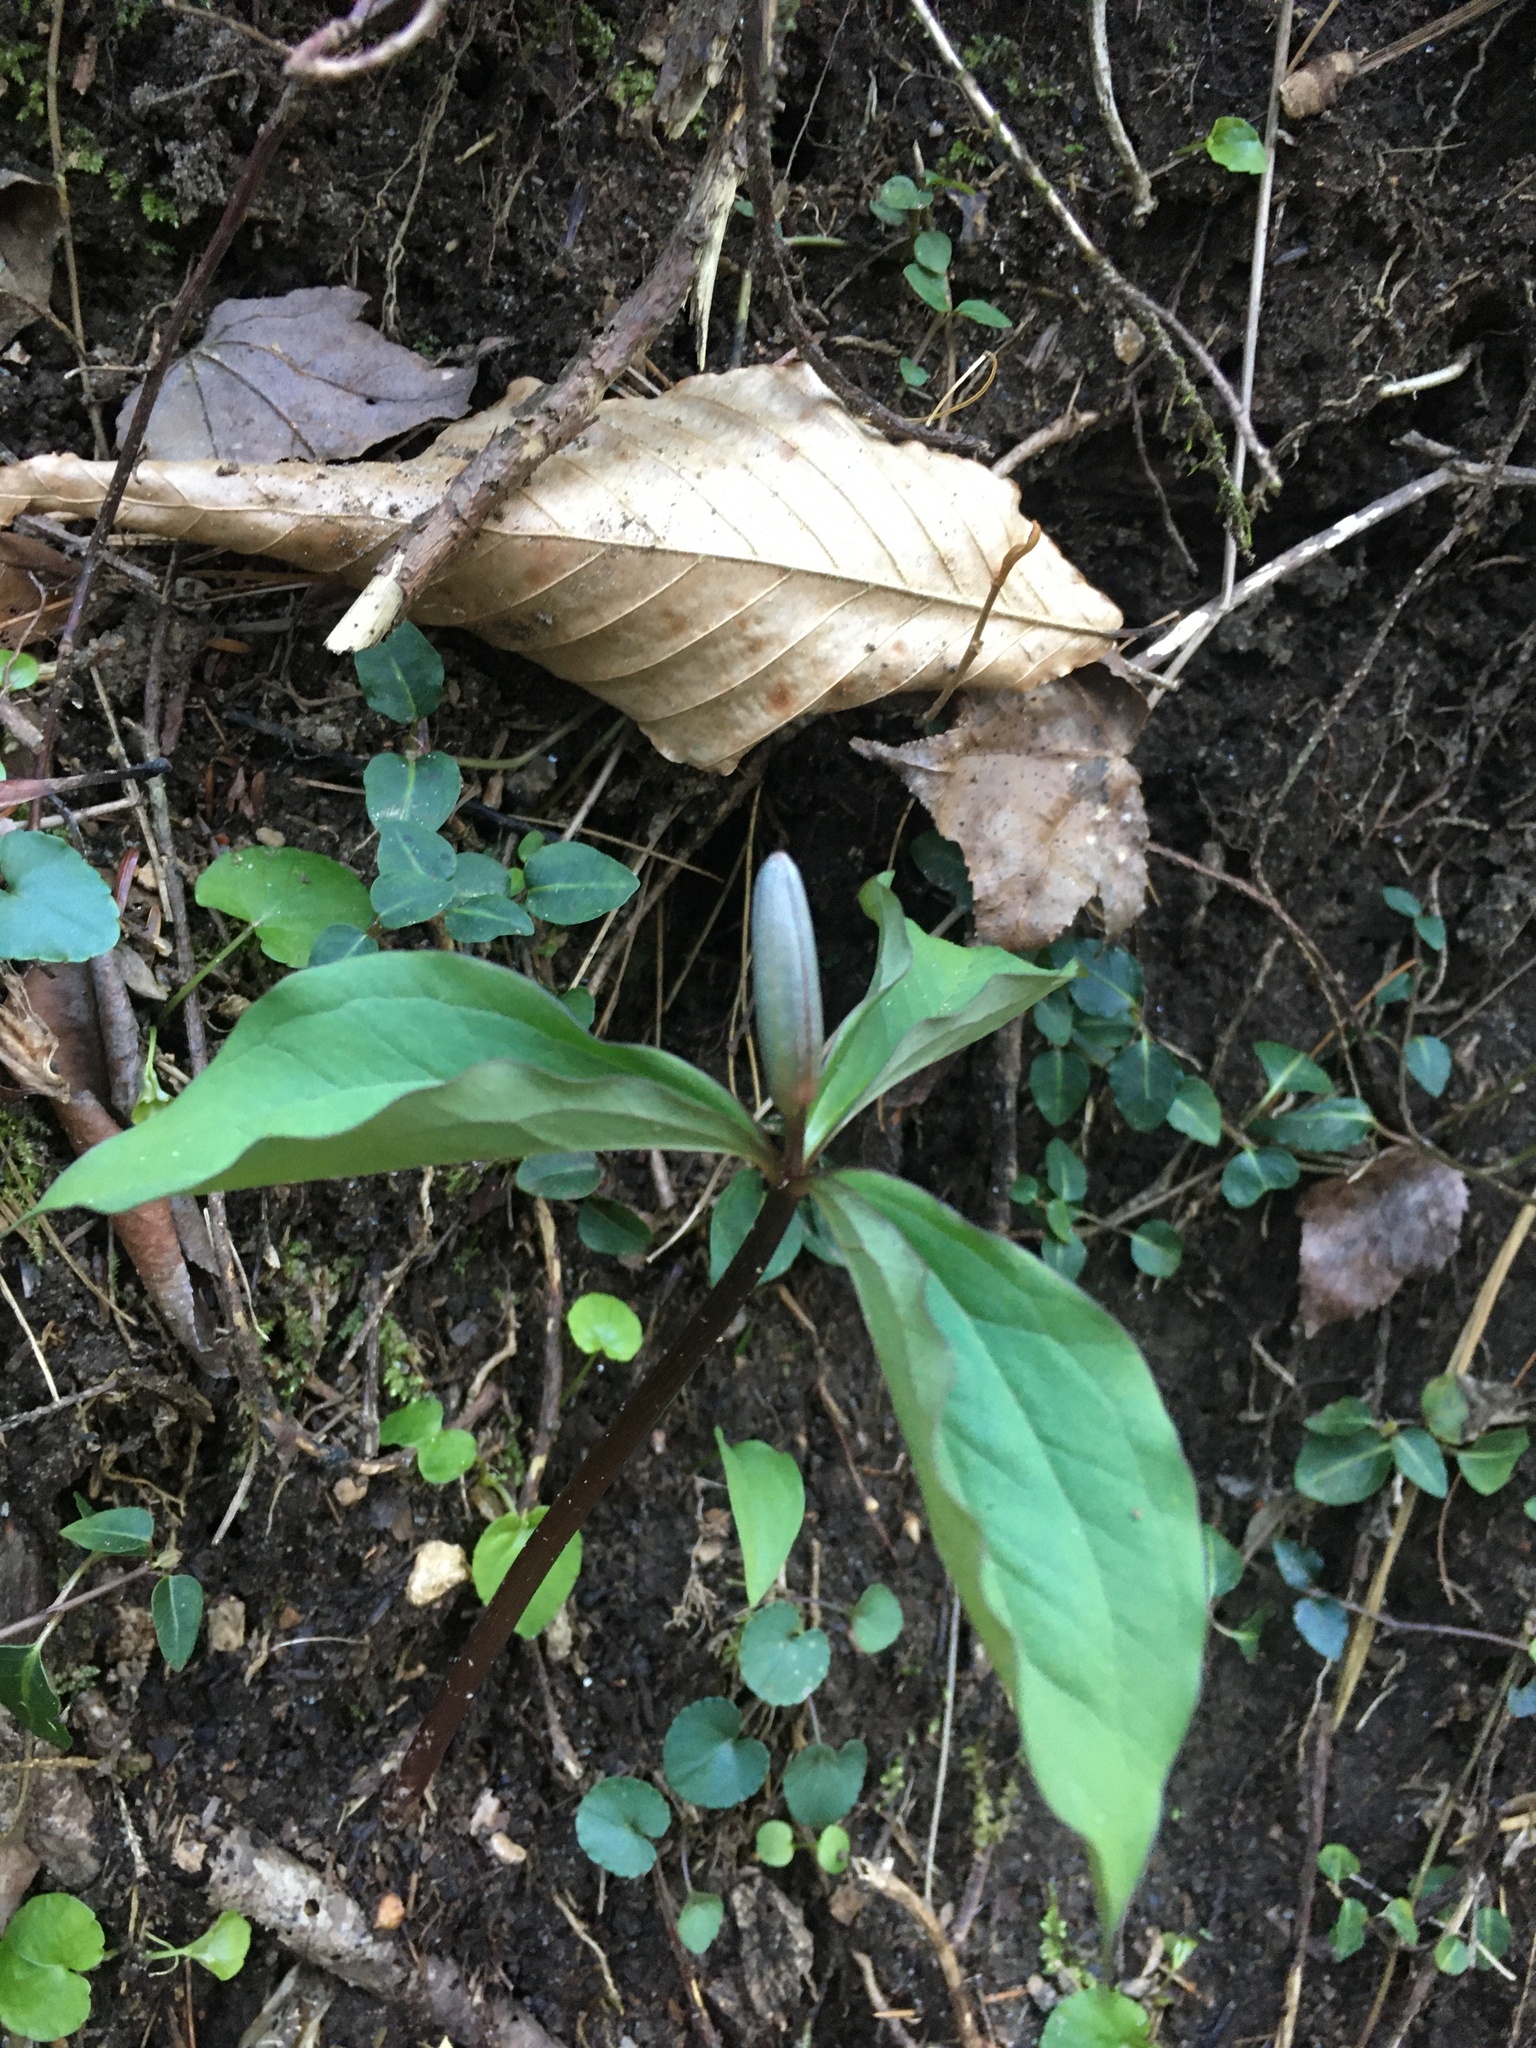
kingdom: Plantae
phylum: Tracheophyta
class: Liliopsida
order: Liliales
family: Melanthiaceae
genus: Trillium
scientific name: Trillium catesbaei
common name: Bashful trillium
